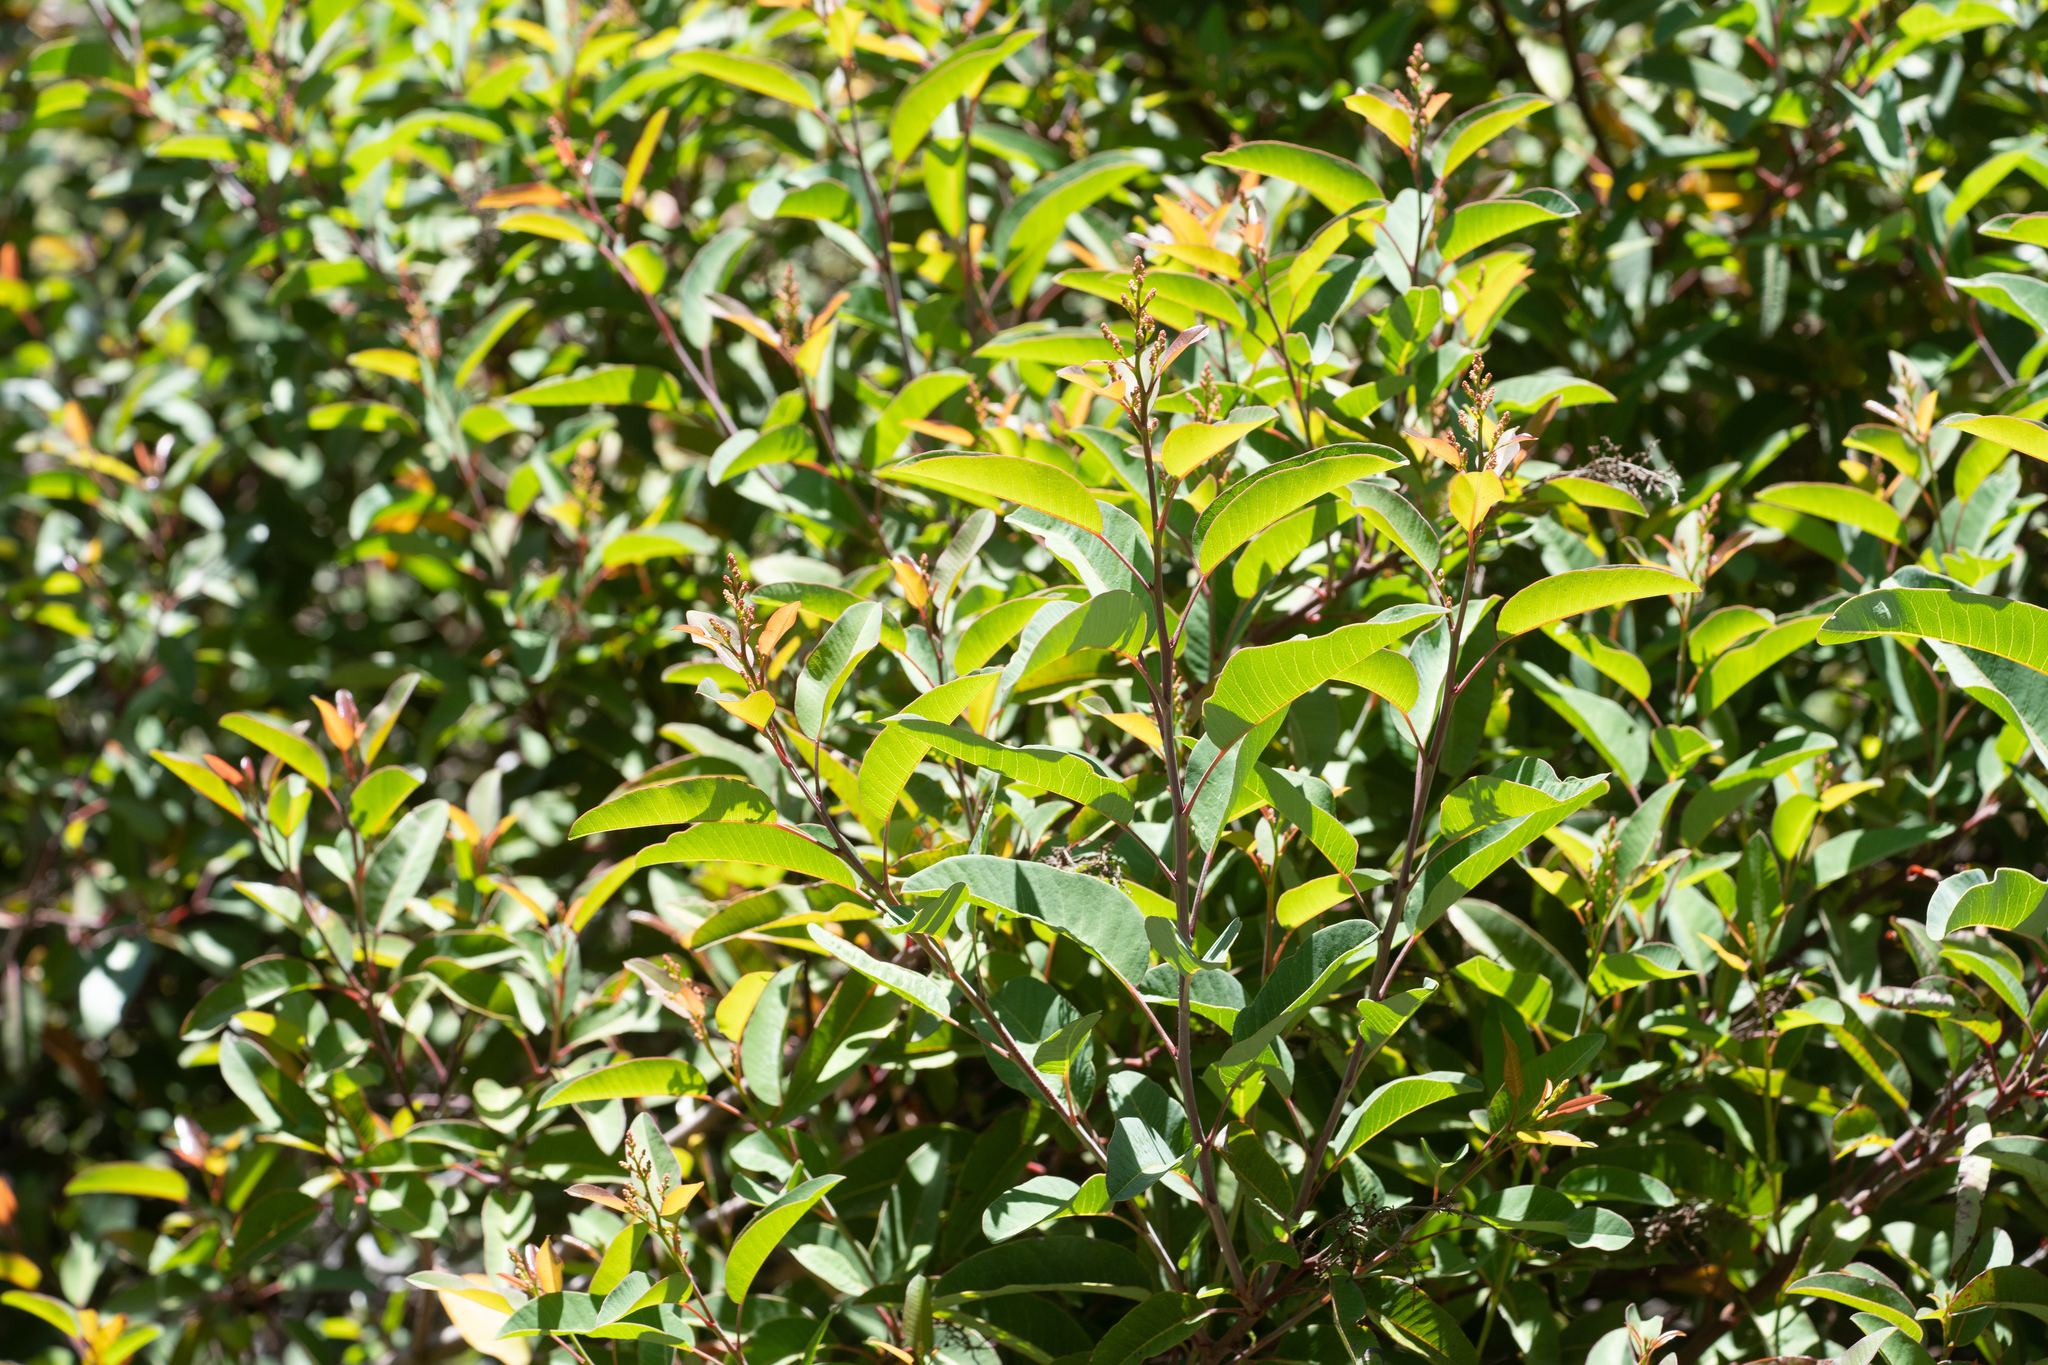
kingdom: Plantae
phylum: Tracheophyta
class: Magnoliopsida
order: Sapindales
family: Anacardiaceae
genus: Malosma
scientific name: Malosma laurina
